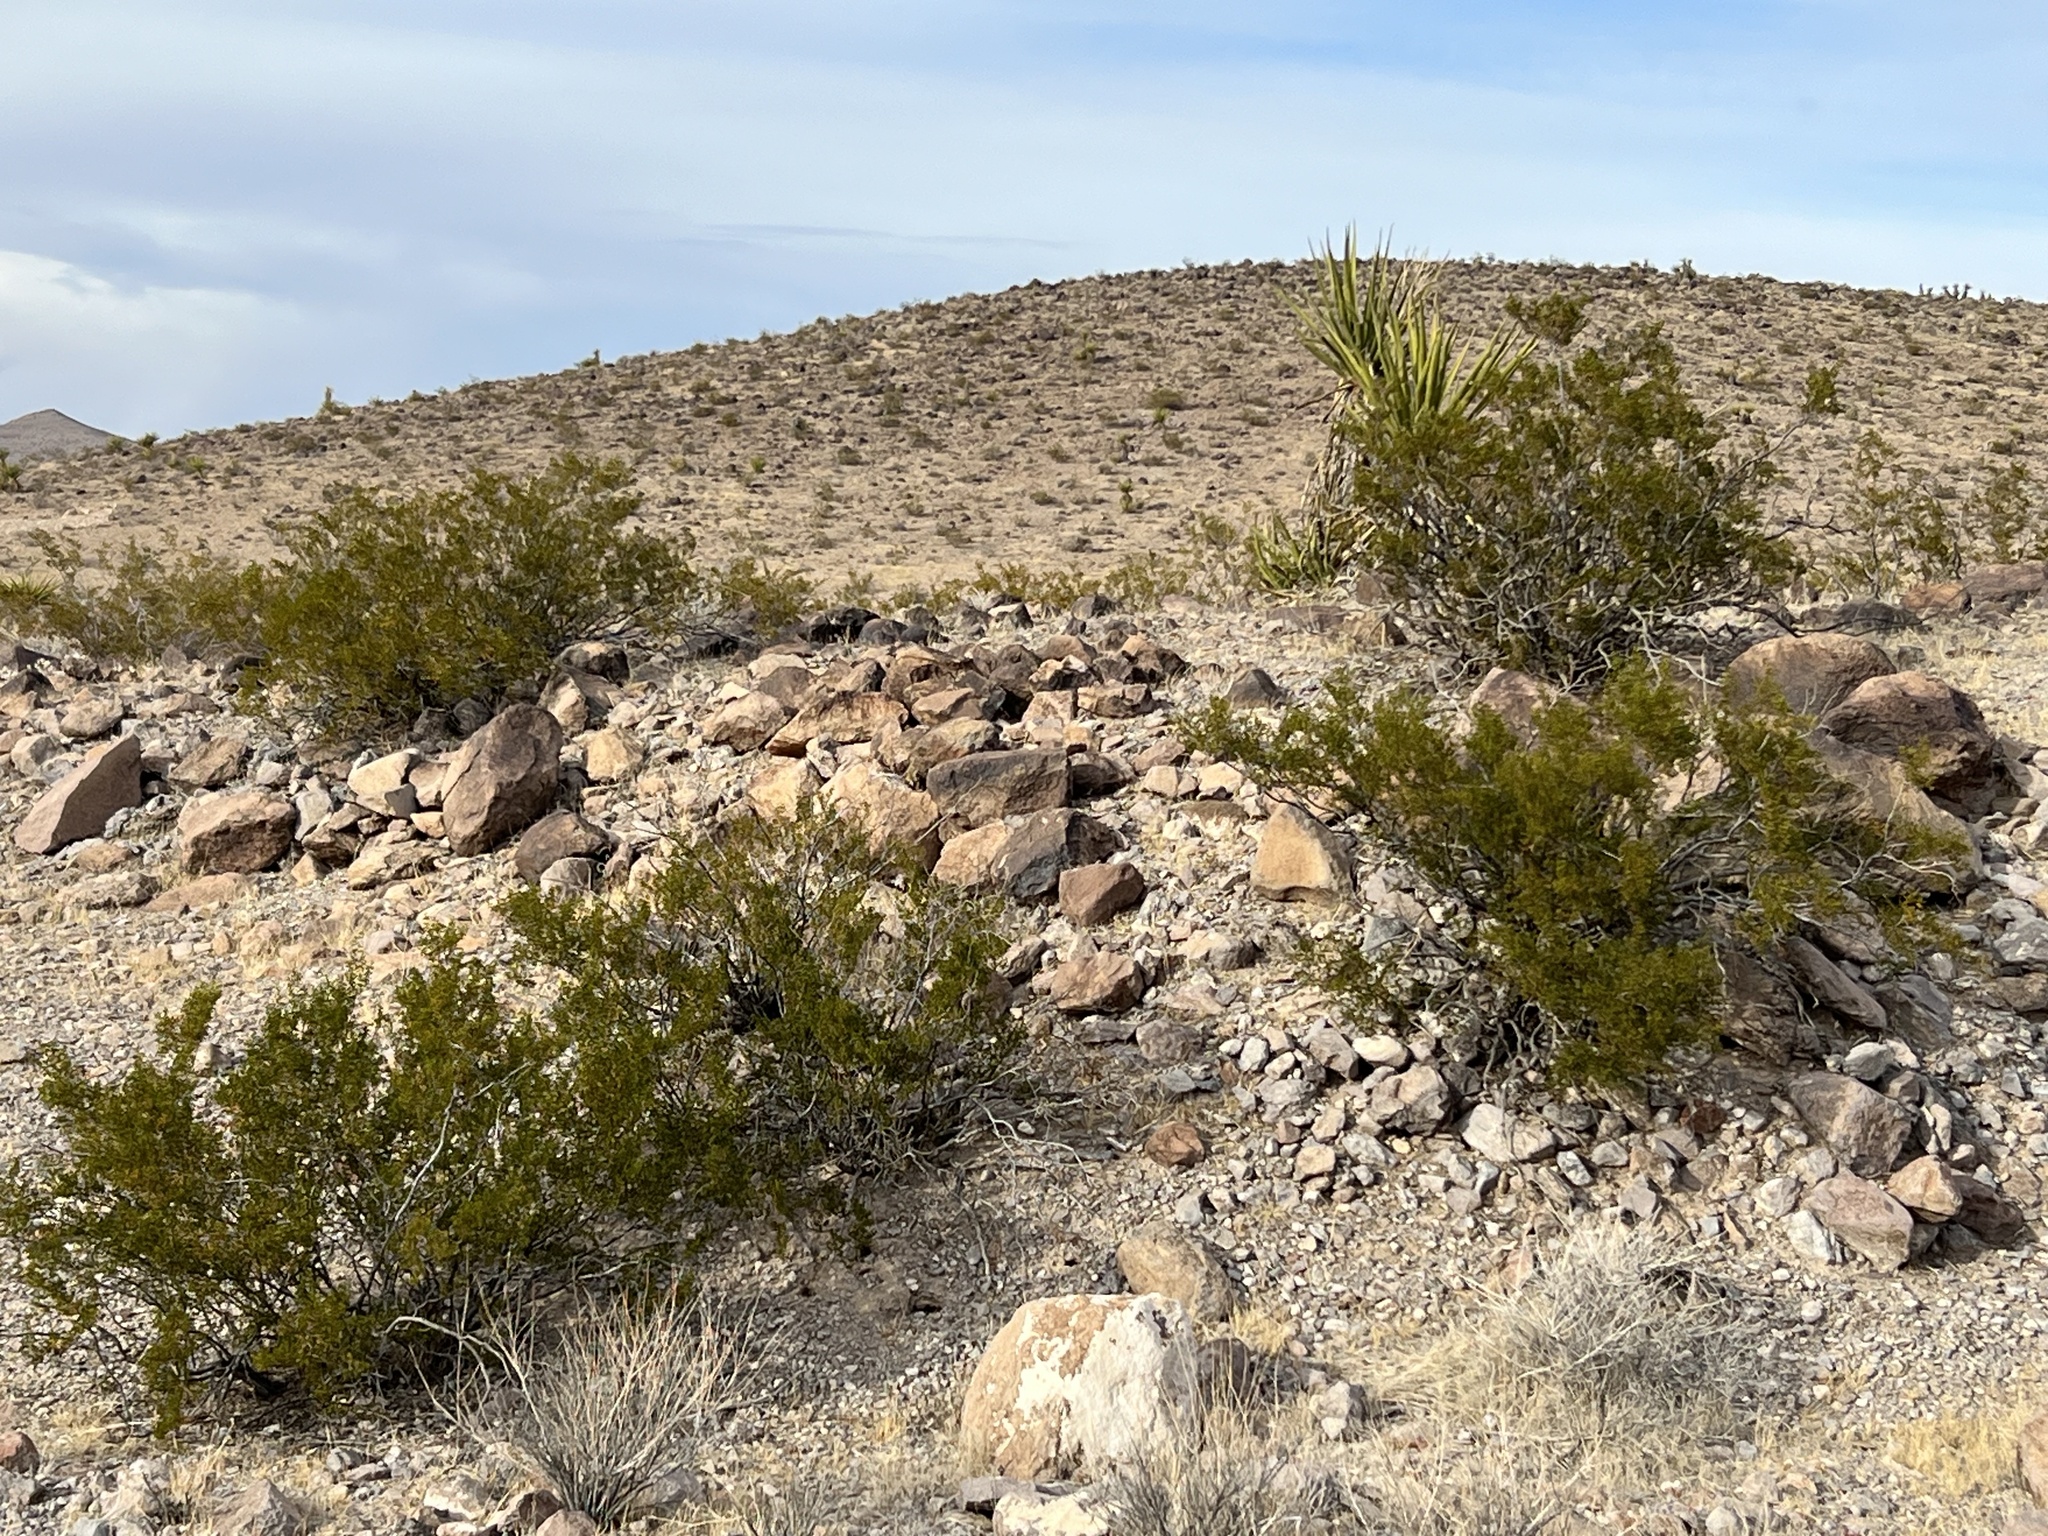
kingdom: Plantae
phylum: Tracheophyta
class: Magnoliopsida
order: Zygophyllales
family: Zygophyllaceae
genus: Larrea
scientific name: Larrea tridentata
